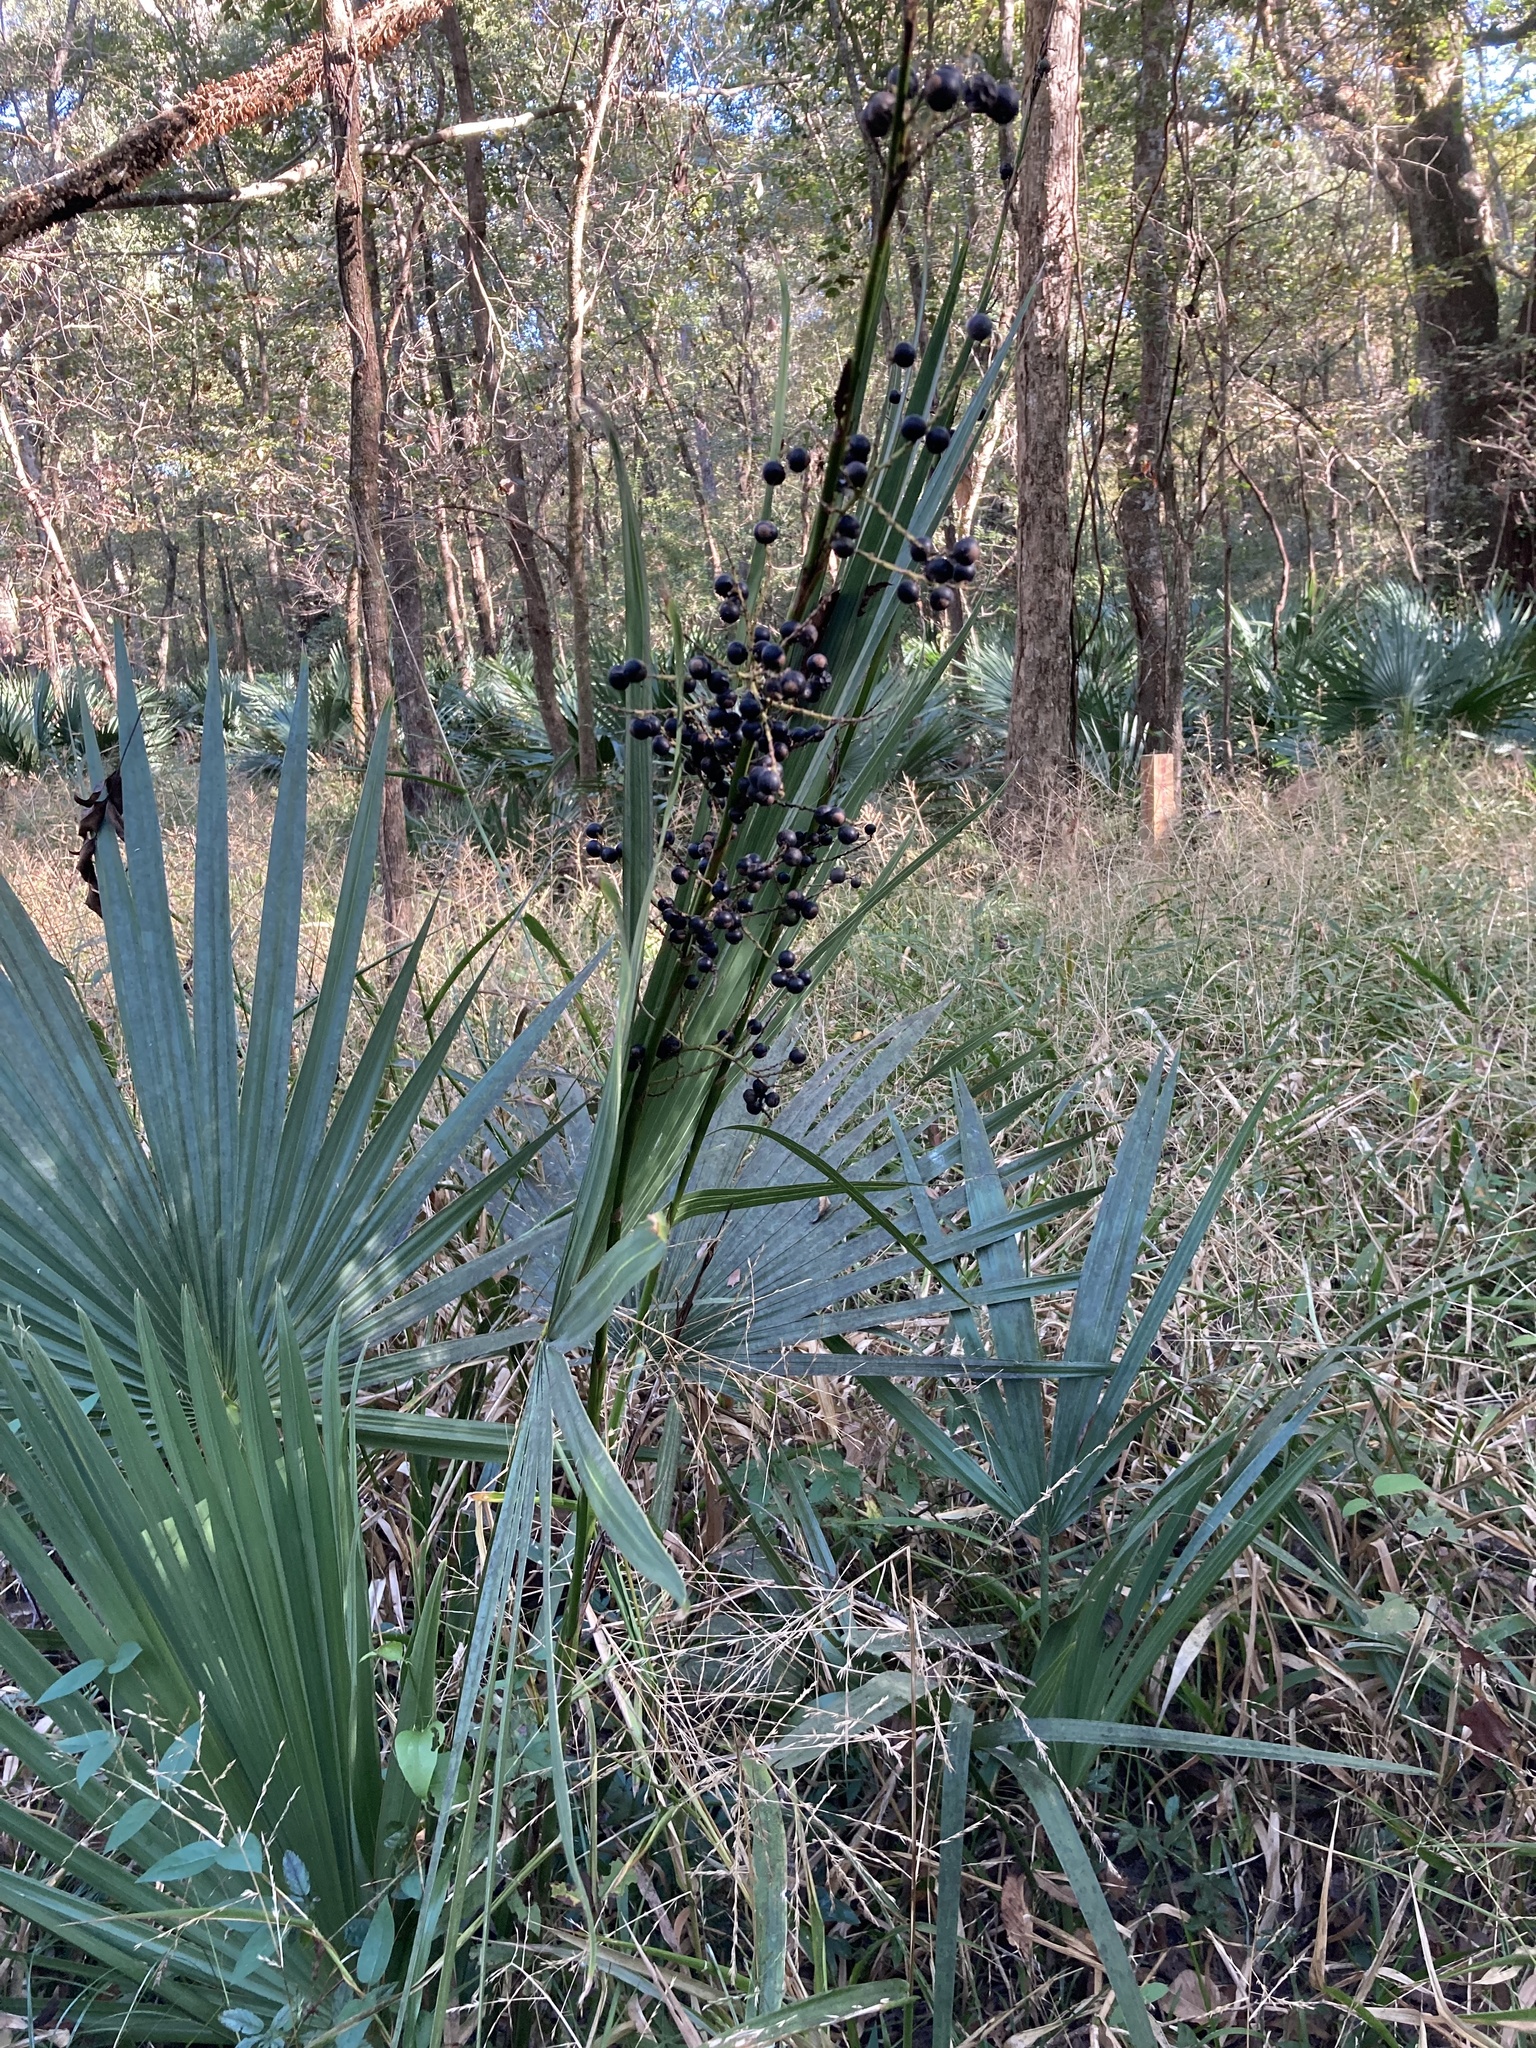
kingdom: Plantae
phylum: Tracheophyta
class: Liliopsida
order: Arecales
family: Arecaceae
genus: Sabal
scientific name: Sabal minor
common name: Dwarf palmetto
